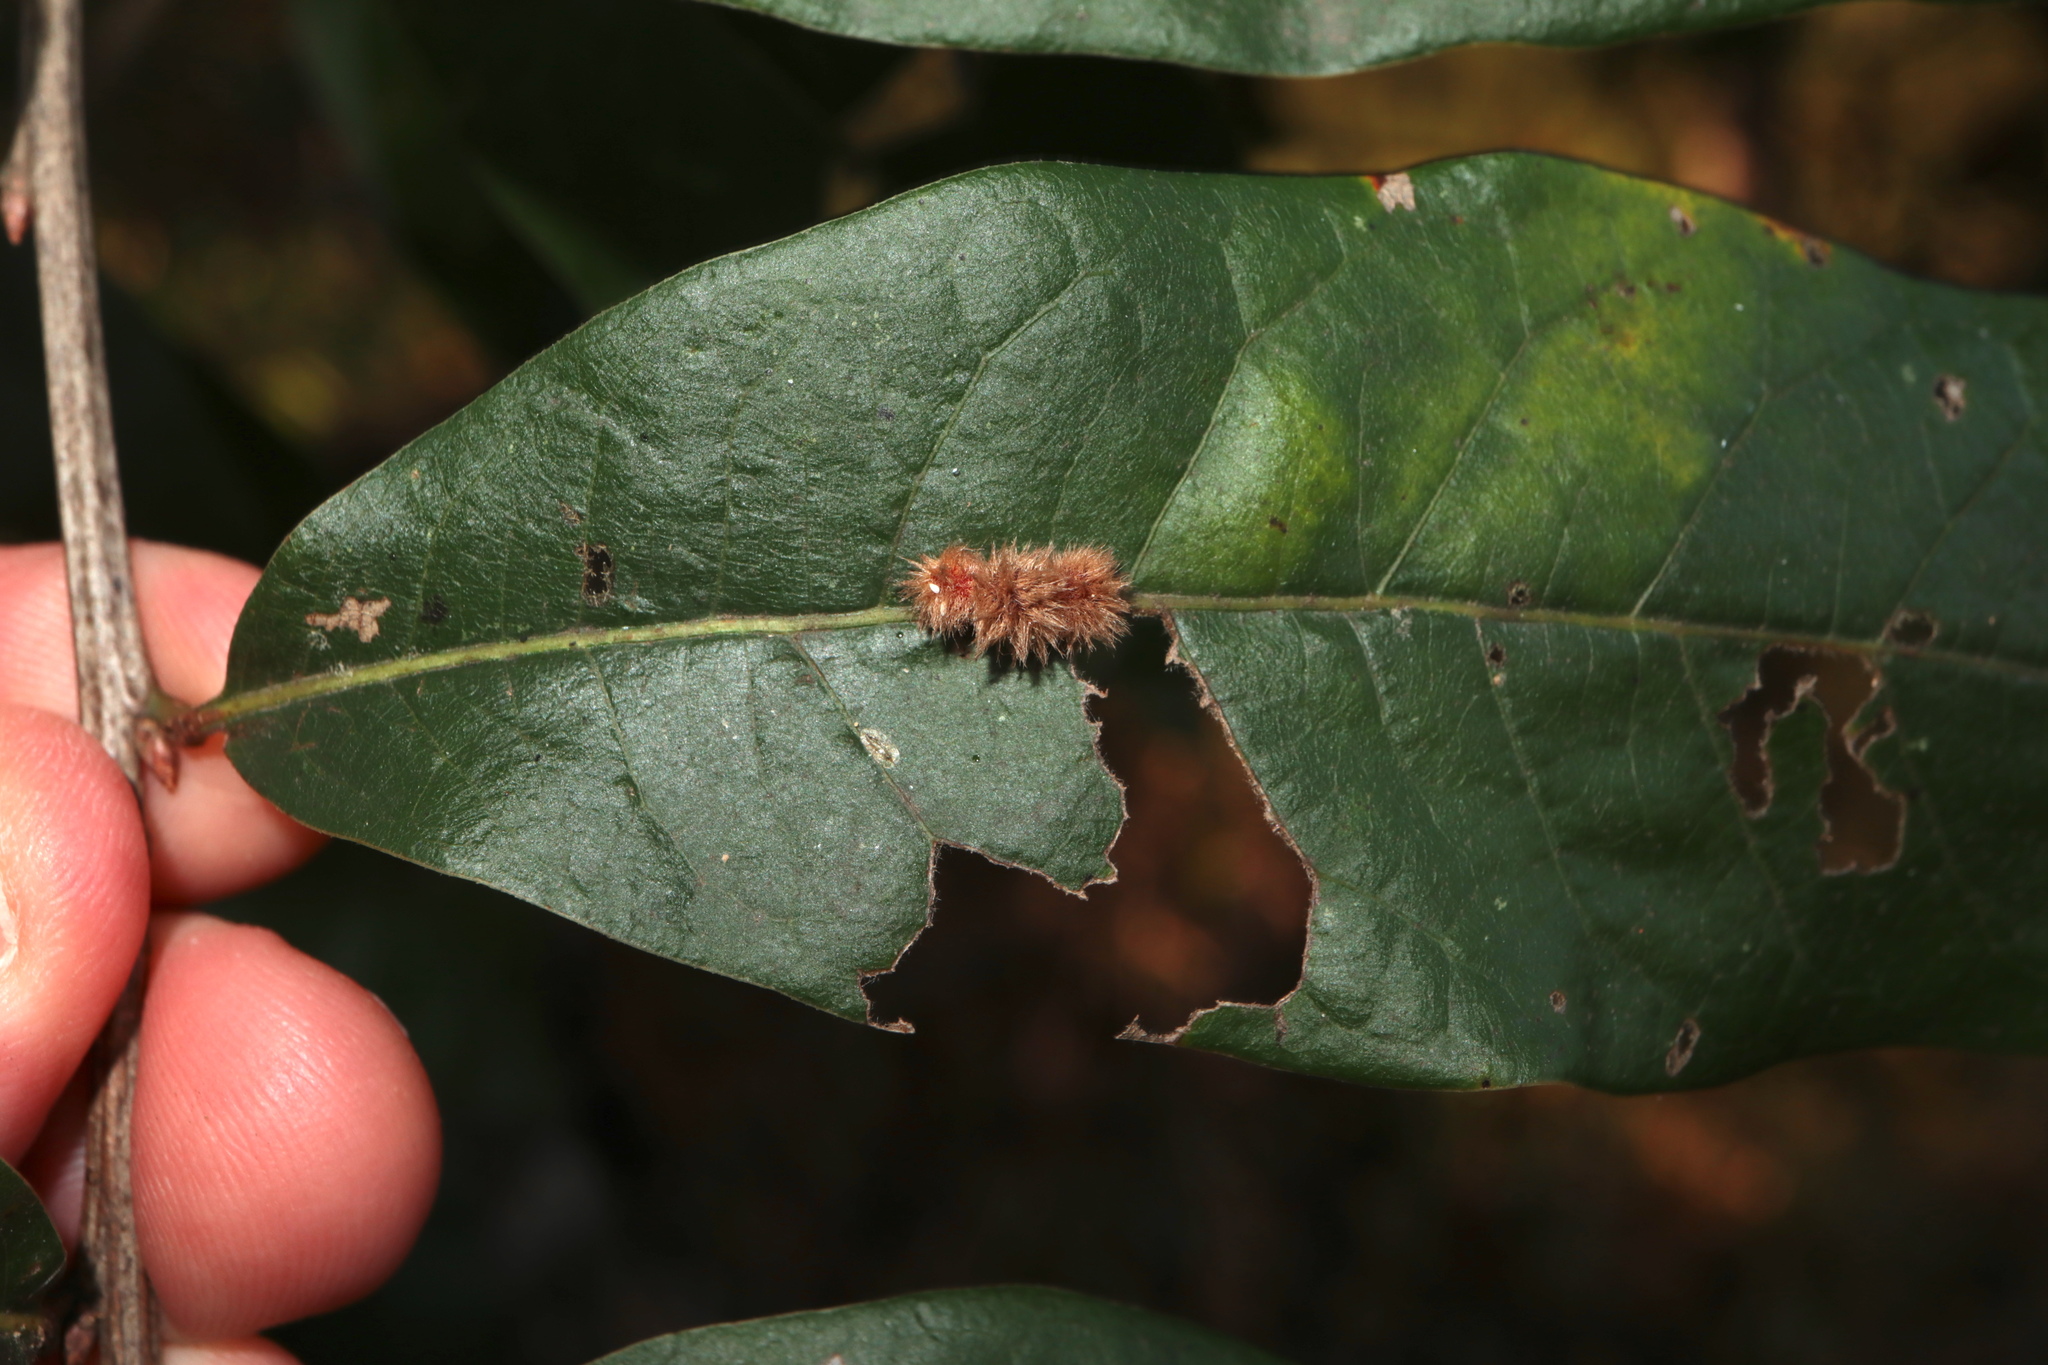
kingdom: Animalia
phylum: Arthropoda
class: Insecta
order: Hymenoptera
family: Cynipidae
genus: Callirhytis
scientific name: Callirhytis
